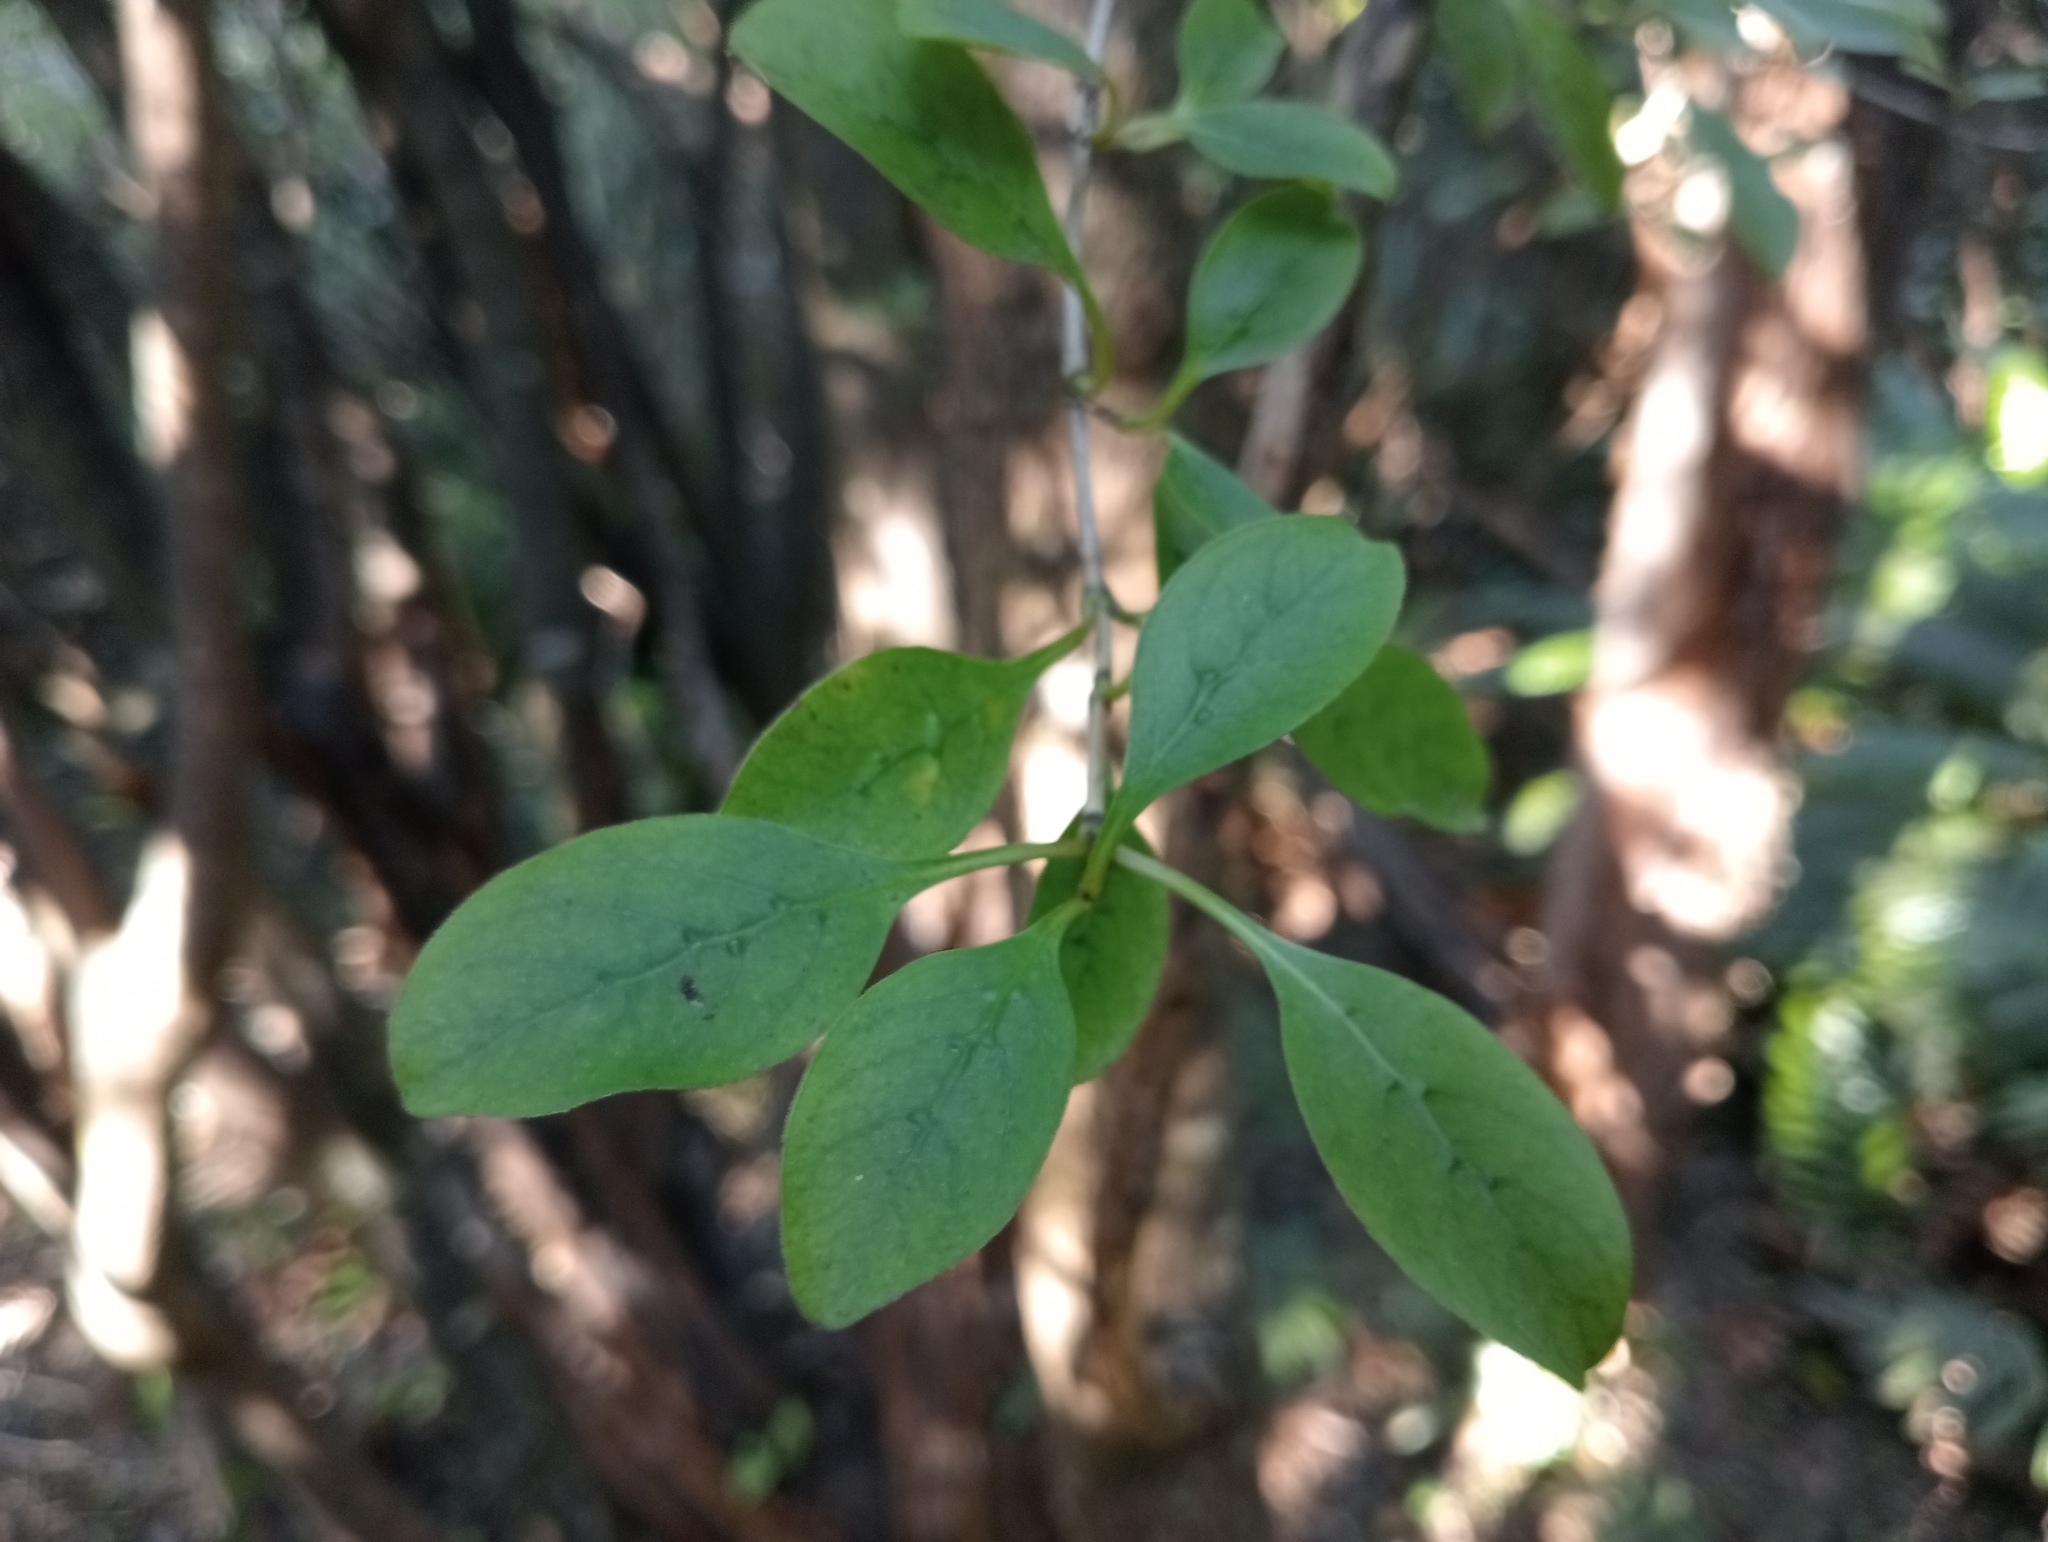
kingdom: Plantae
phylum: Tracheophyta
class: Magnoliopsida
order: Gentianales
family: Rubiaceae
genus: Coprosma
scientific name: Coprosma foetidissima
